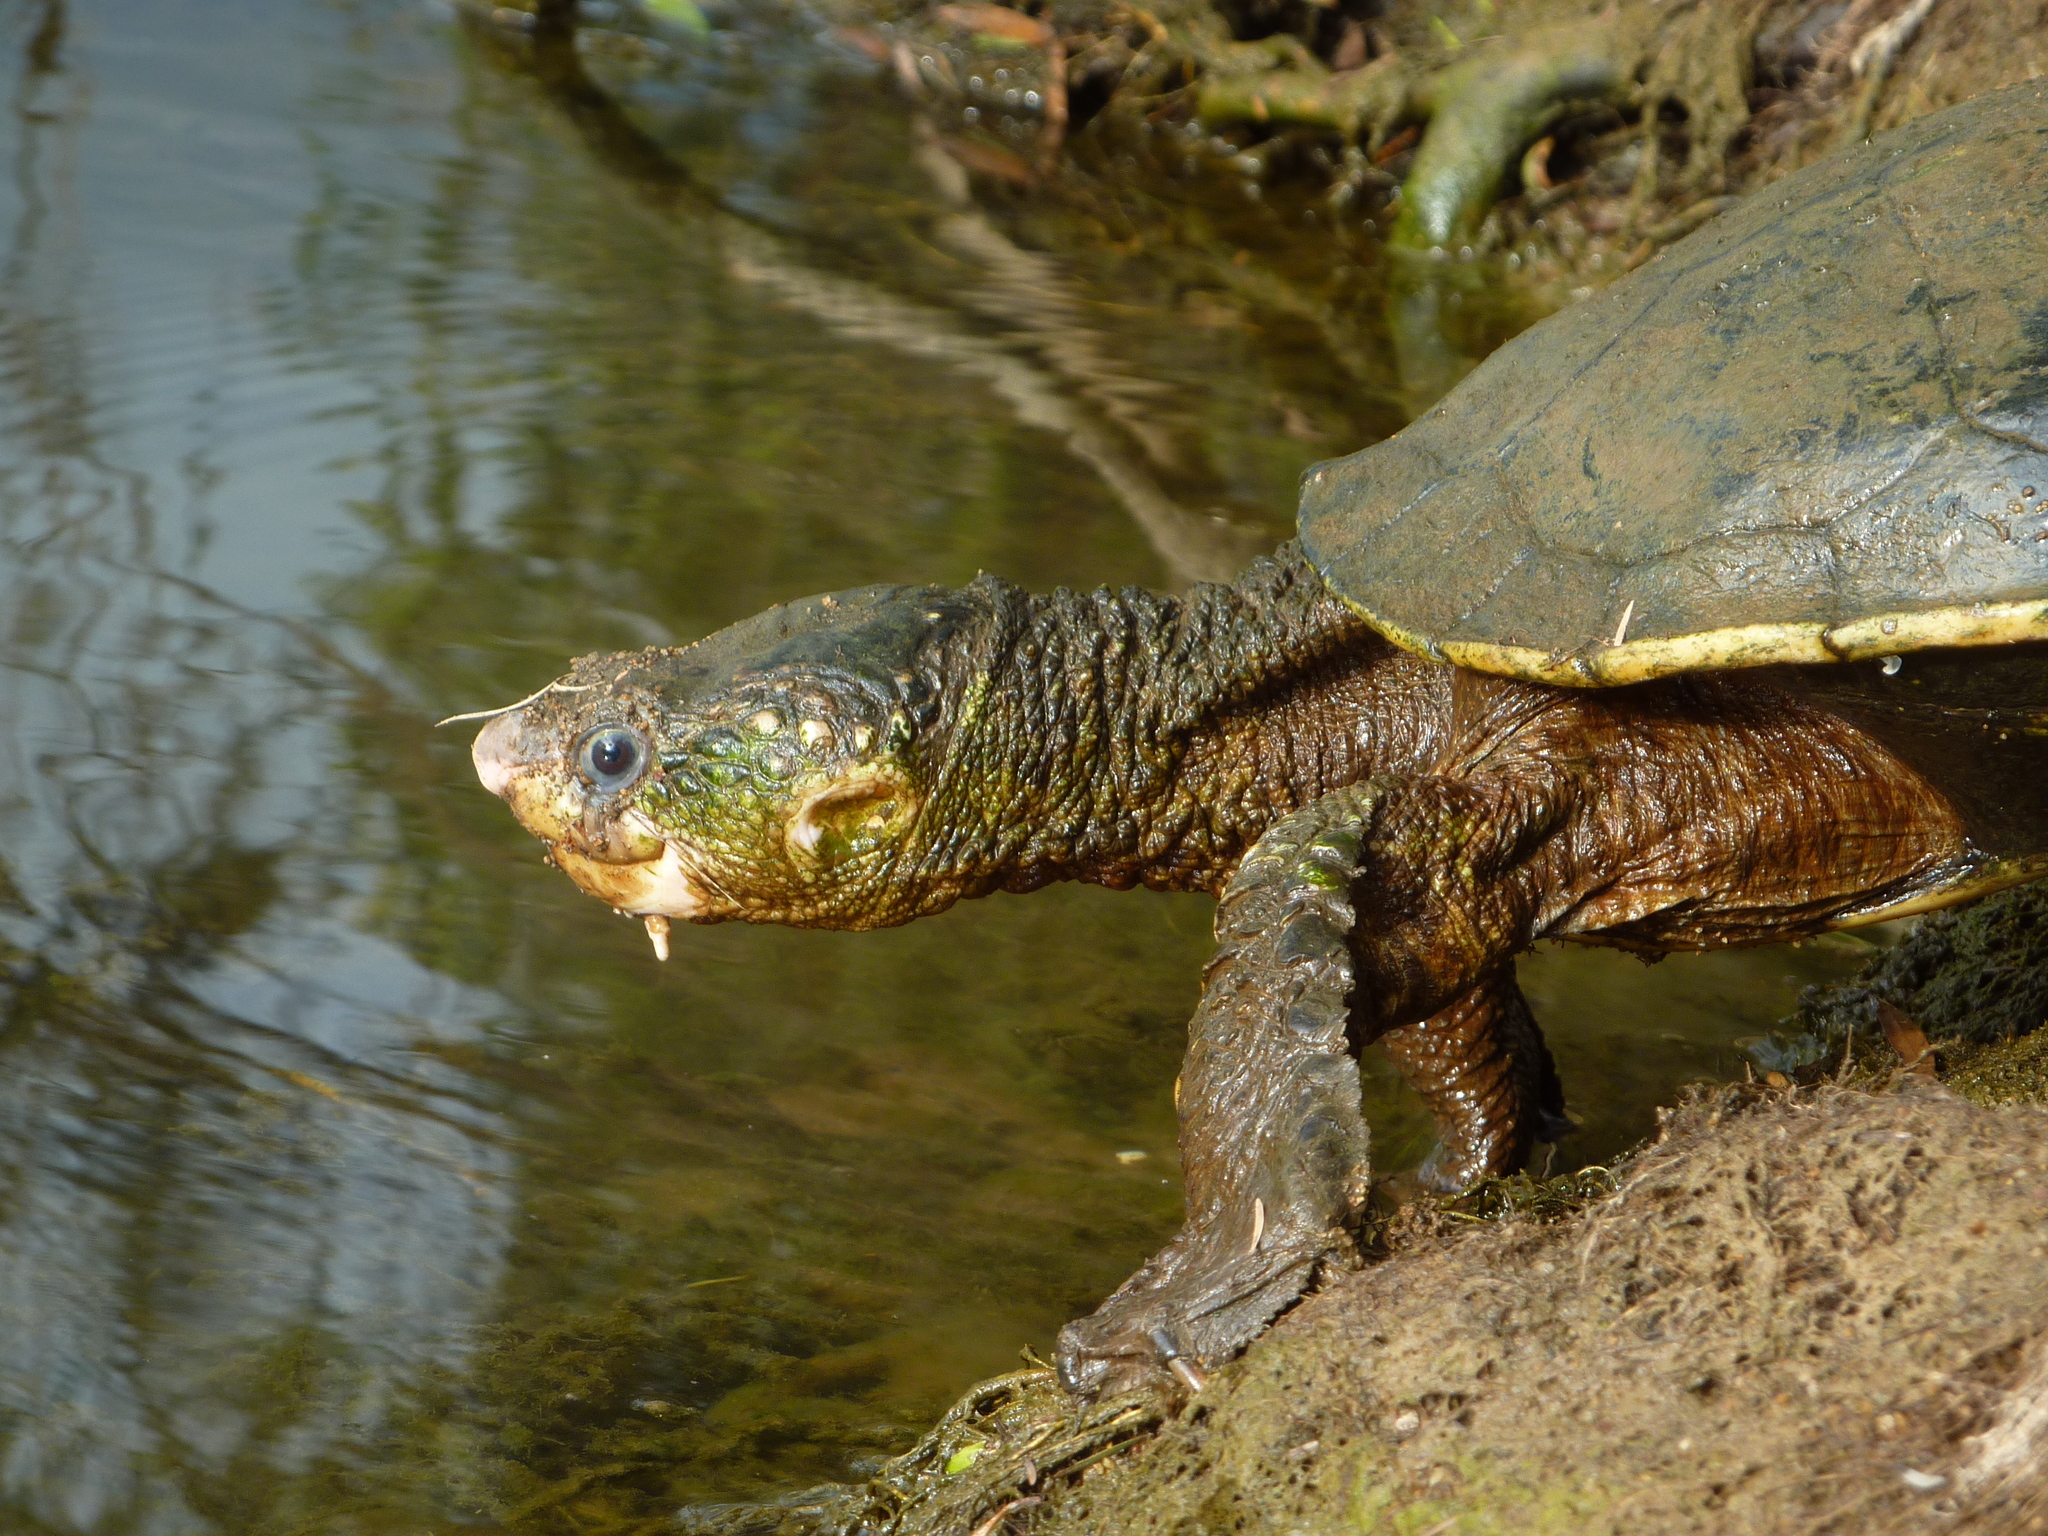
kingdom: Animalia
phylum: Chordata
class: Testudines
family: Chelidae
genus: Elseya
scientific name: Elseya albagula
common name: White-throated snapping turtle
